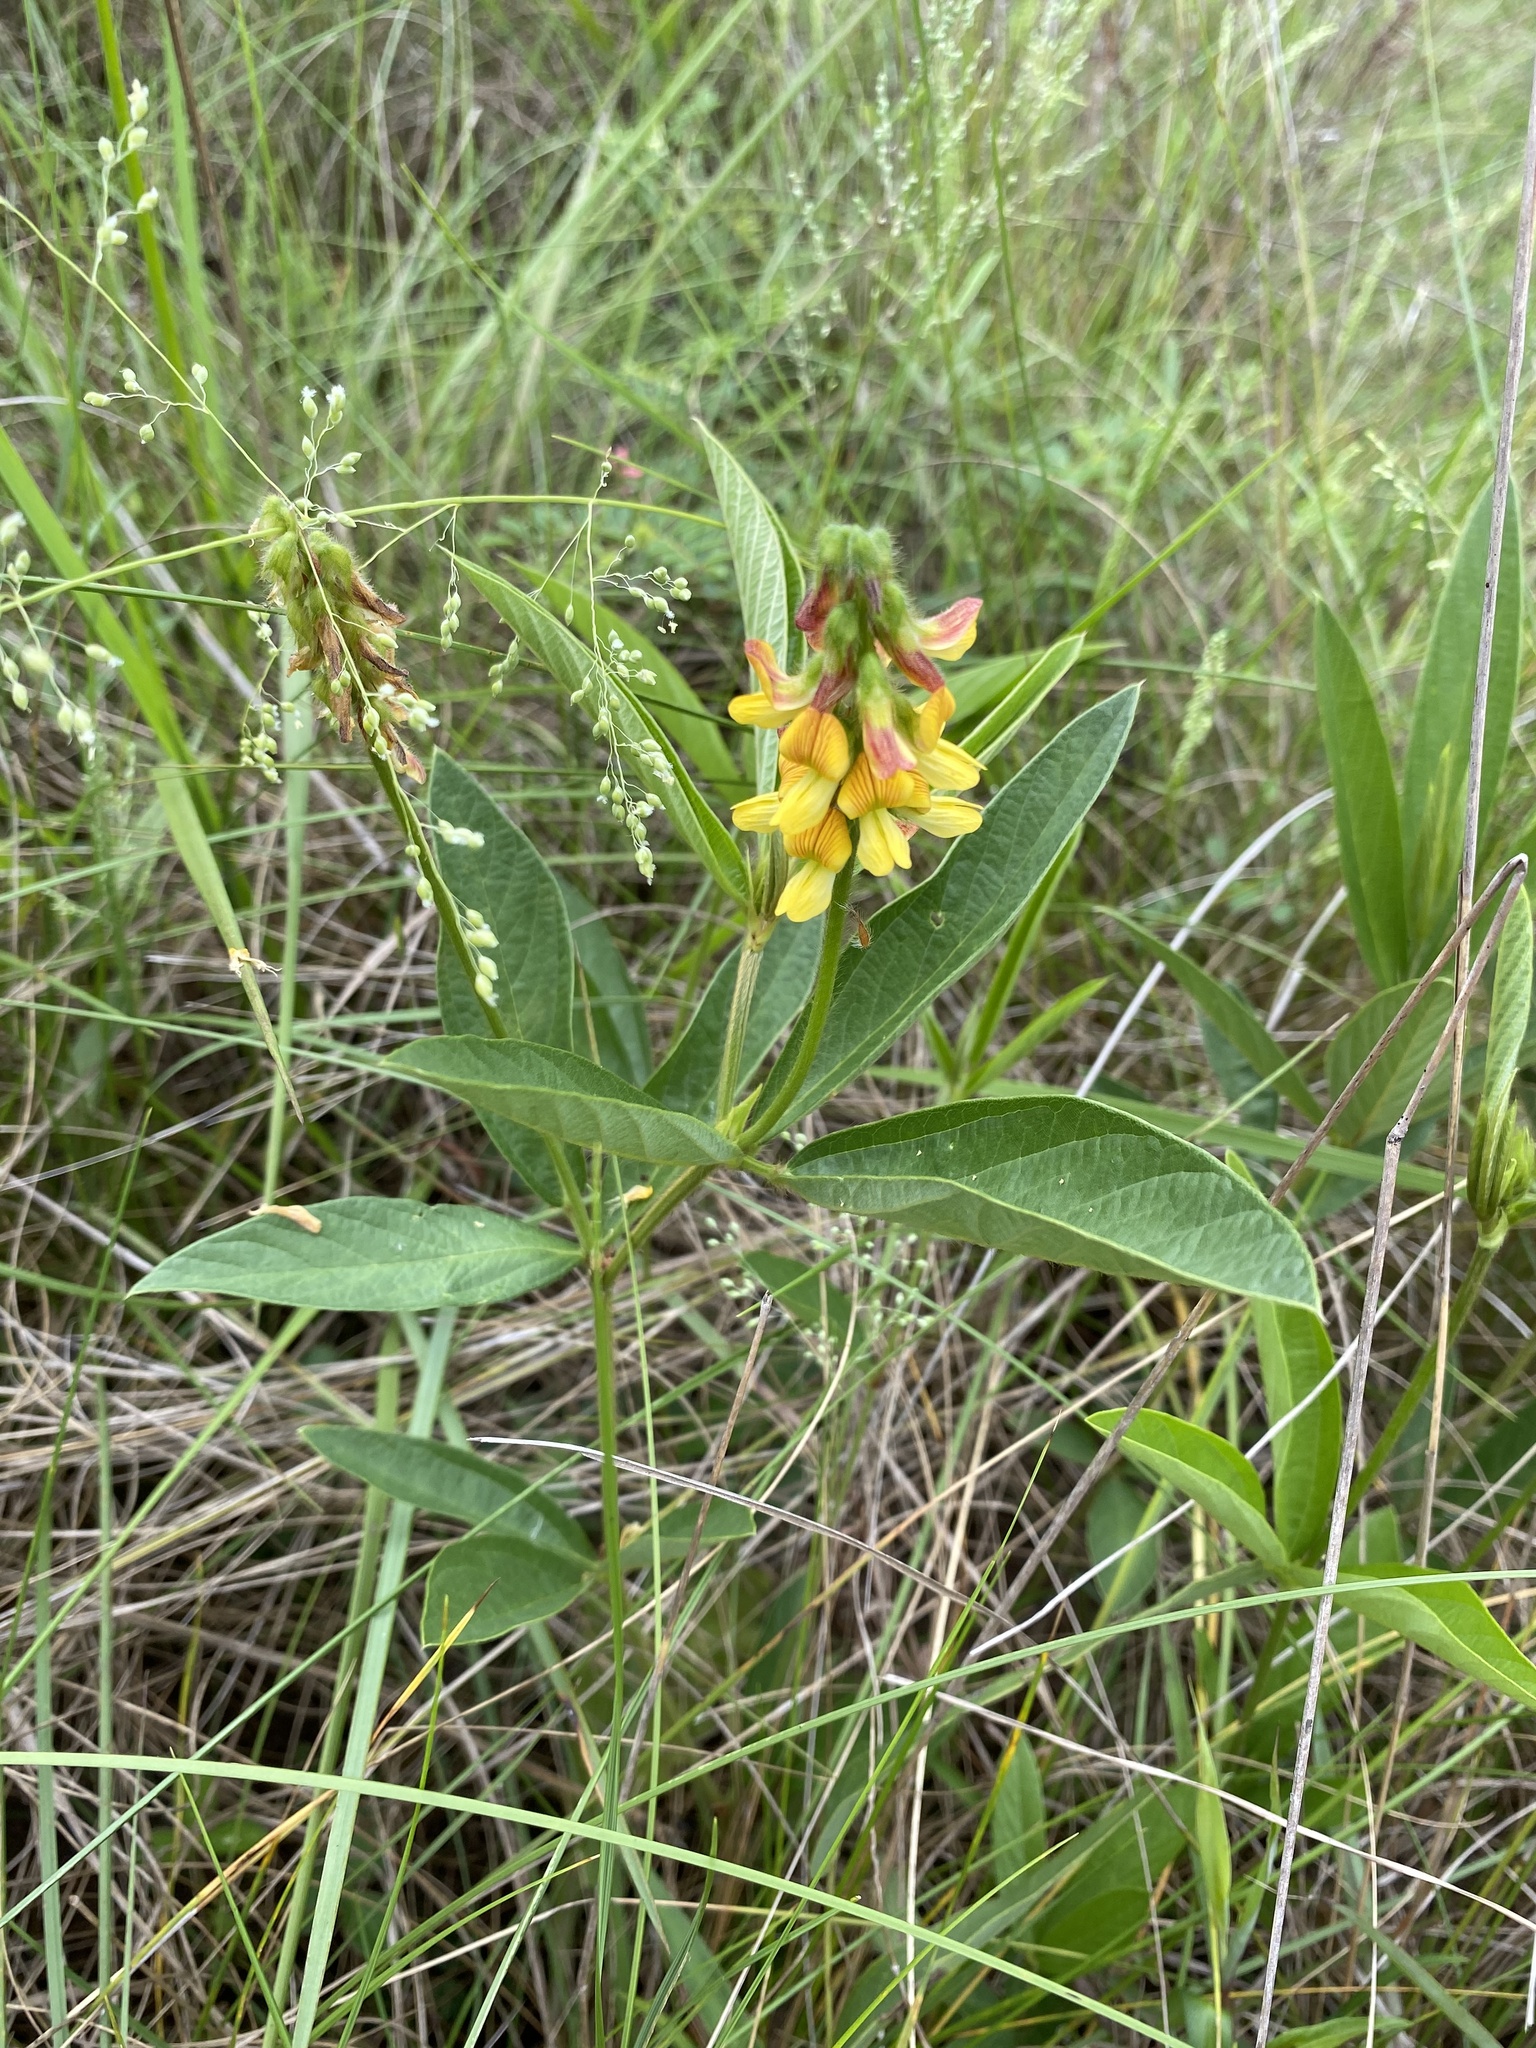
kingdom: Plantae
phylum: Tracheophyta
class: Magnoliopsida
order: Fabales
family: Fabaceae
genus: Eriosema
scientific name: Eriosema salignum
